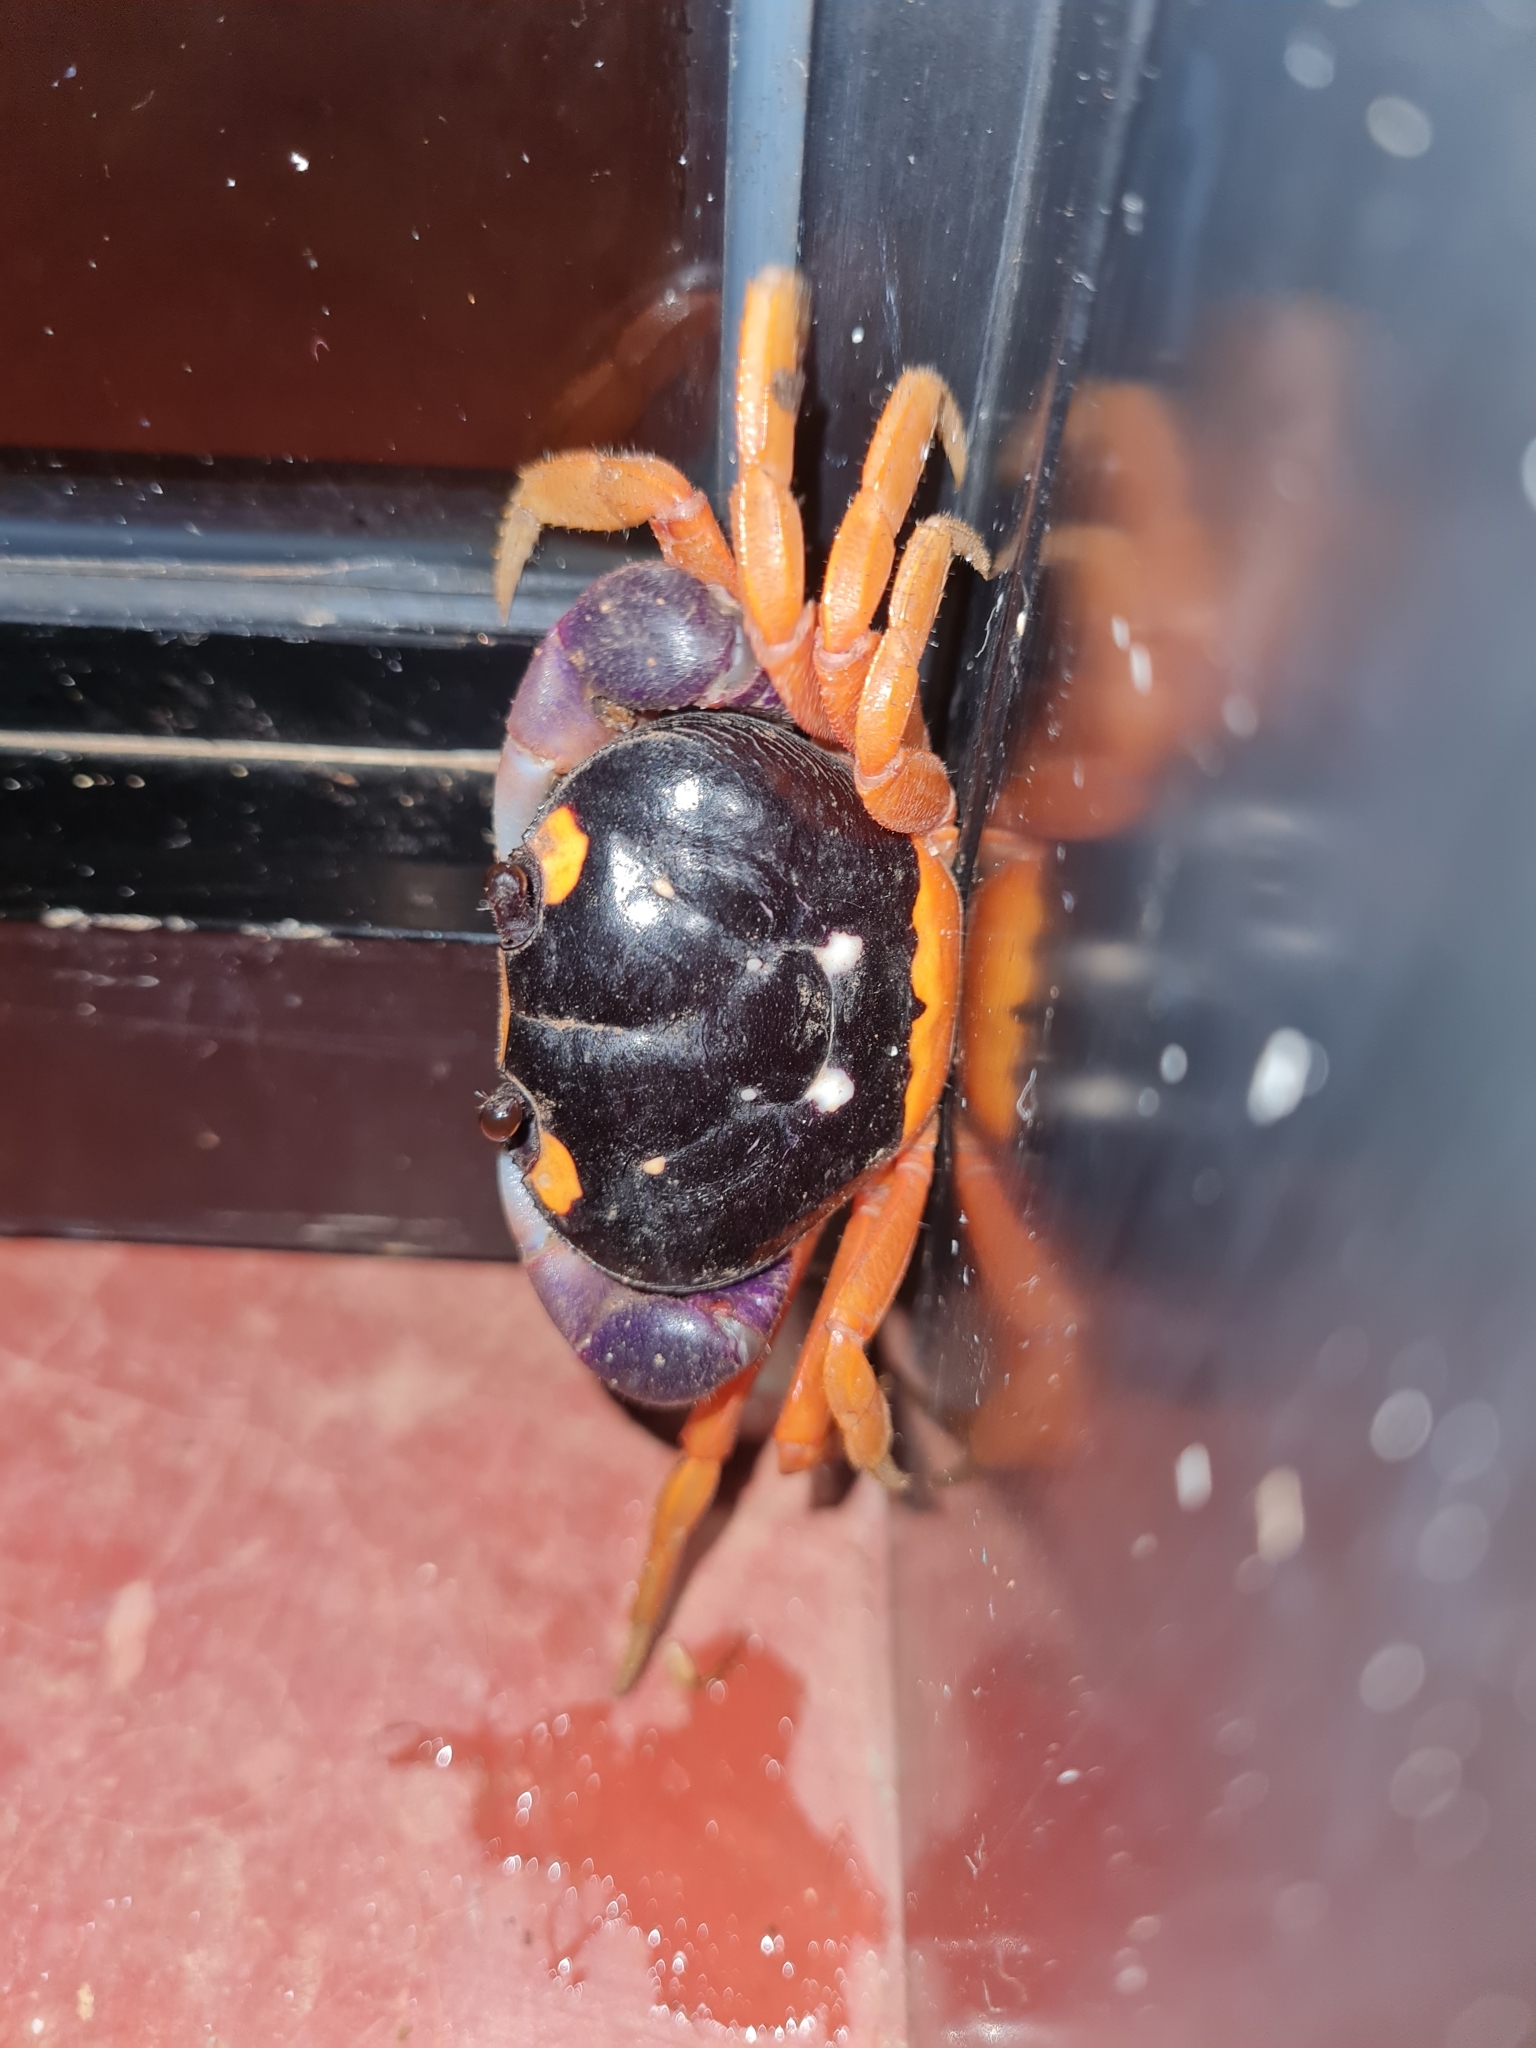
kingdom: Animalia
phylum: Arthropoda
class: Malacostraca
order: Decapoda
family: Gecarcinidae
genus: Gecarcinus
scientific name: Gecarcinus quadratus
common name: Halloween crab
